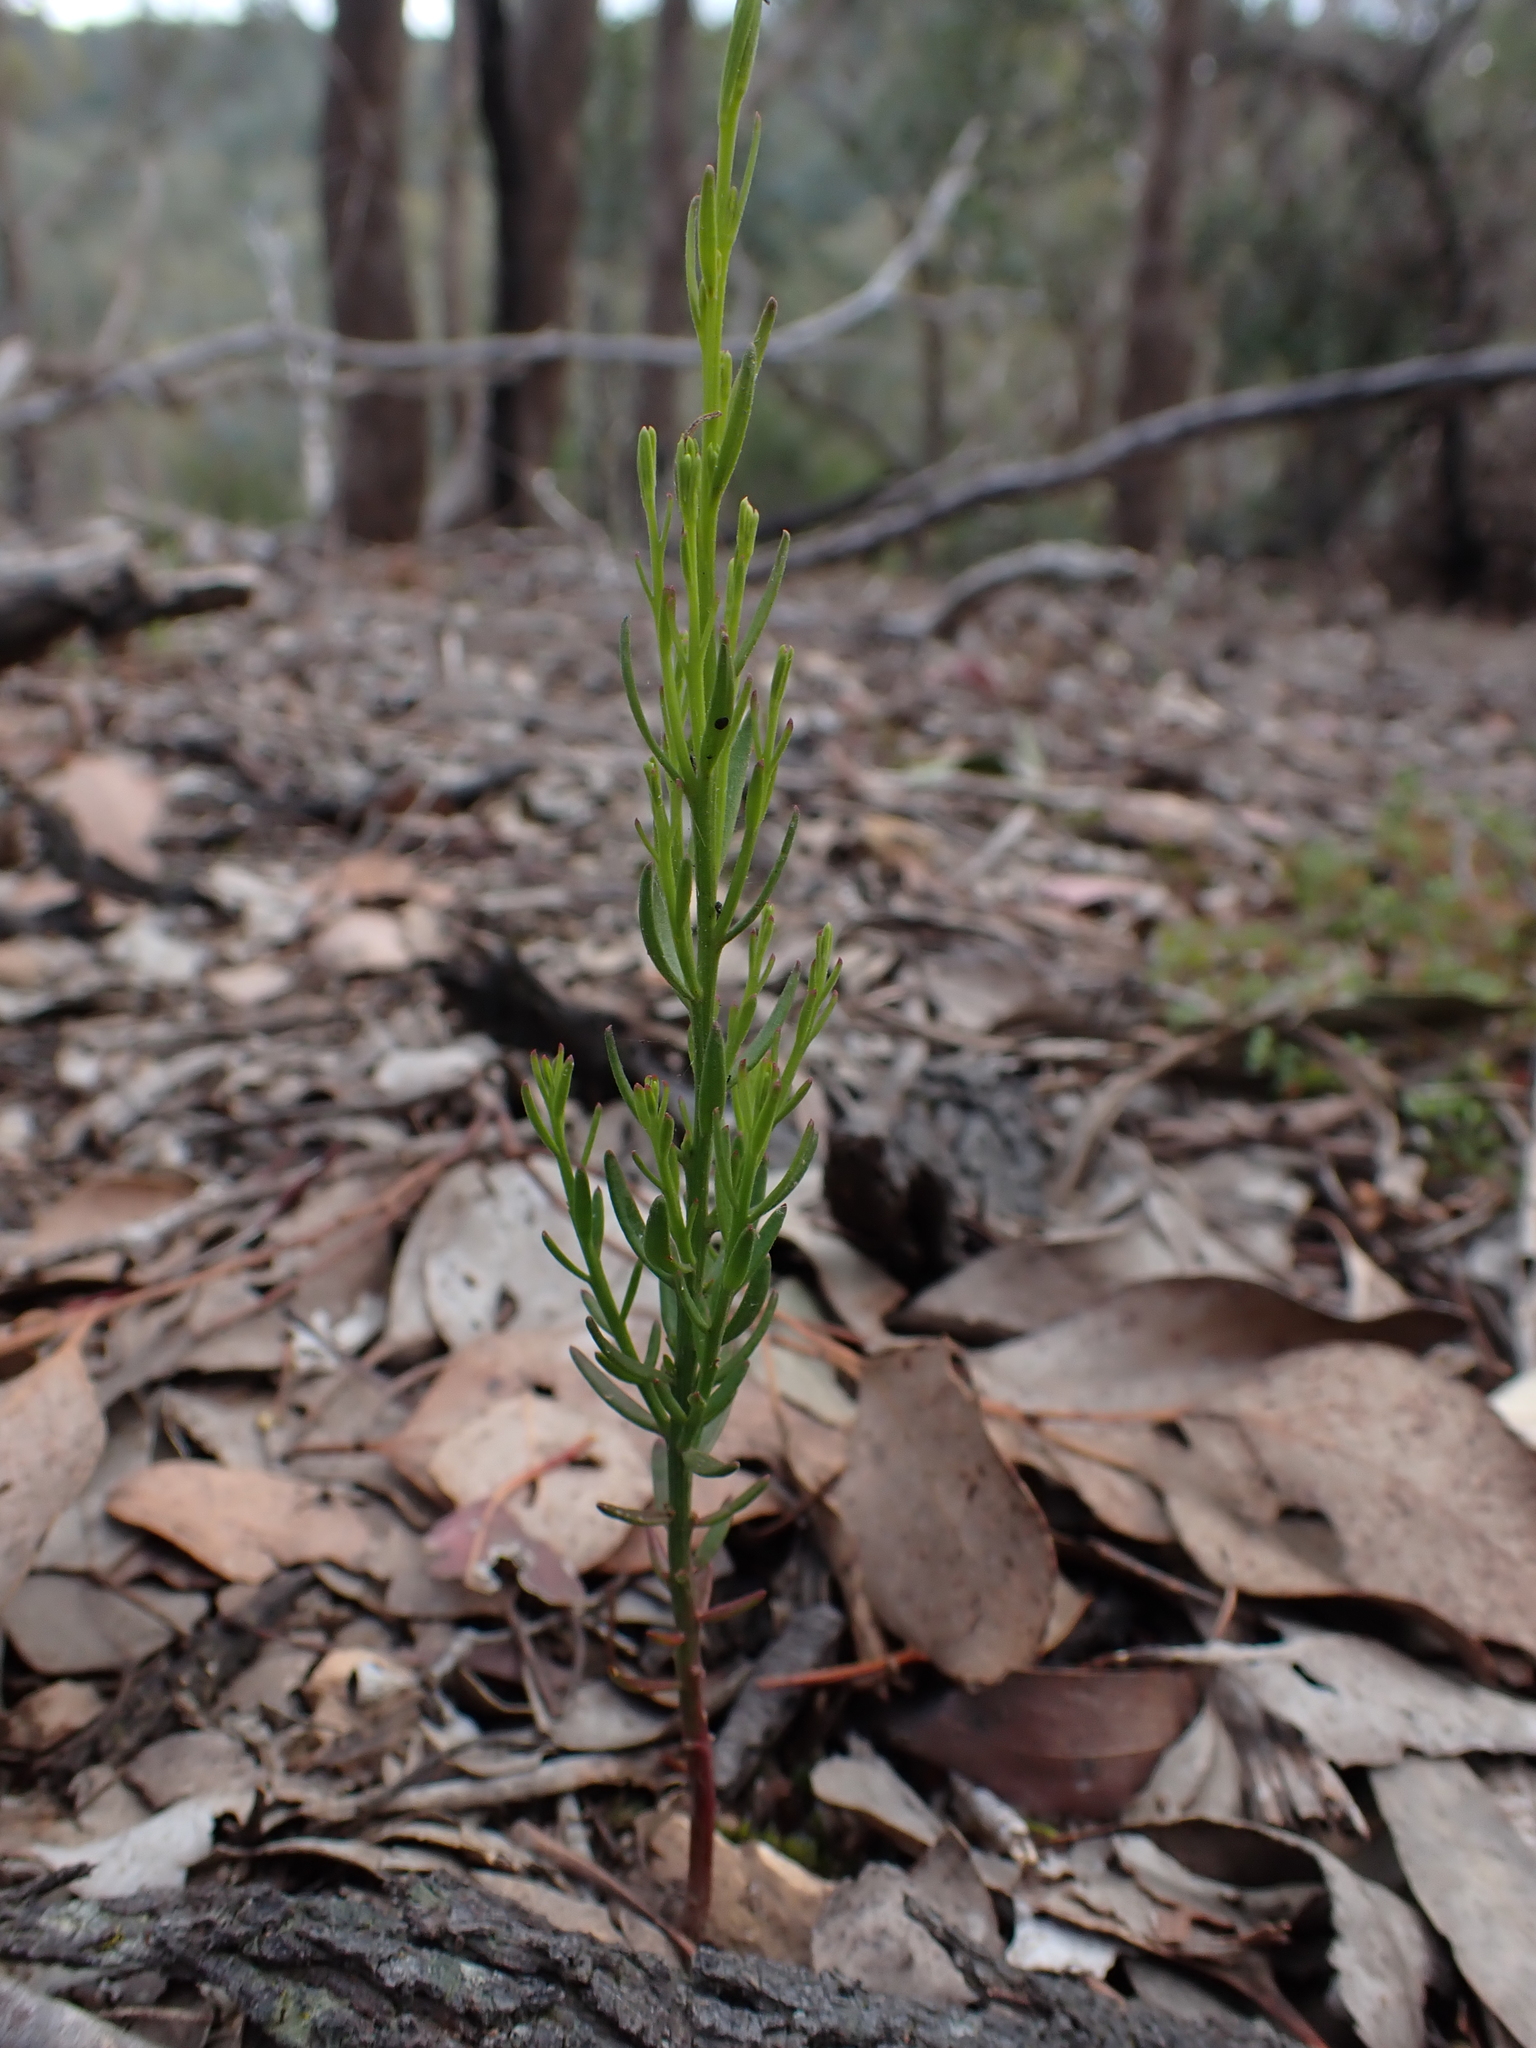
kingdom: Plantae
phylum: Tracheophyta
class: Magnoliopsida
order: Santalales
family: Santalaceae
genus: Exocarpos
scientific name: Exocarpos cupressiformis
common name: Cherry ballart
